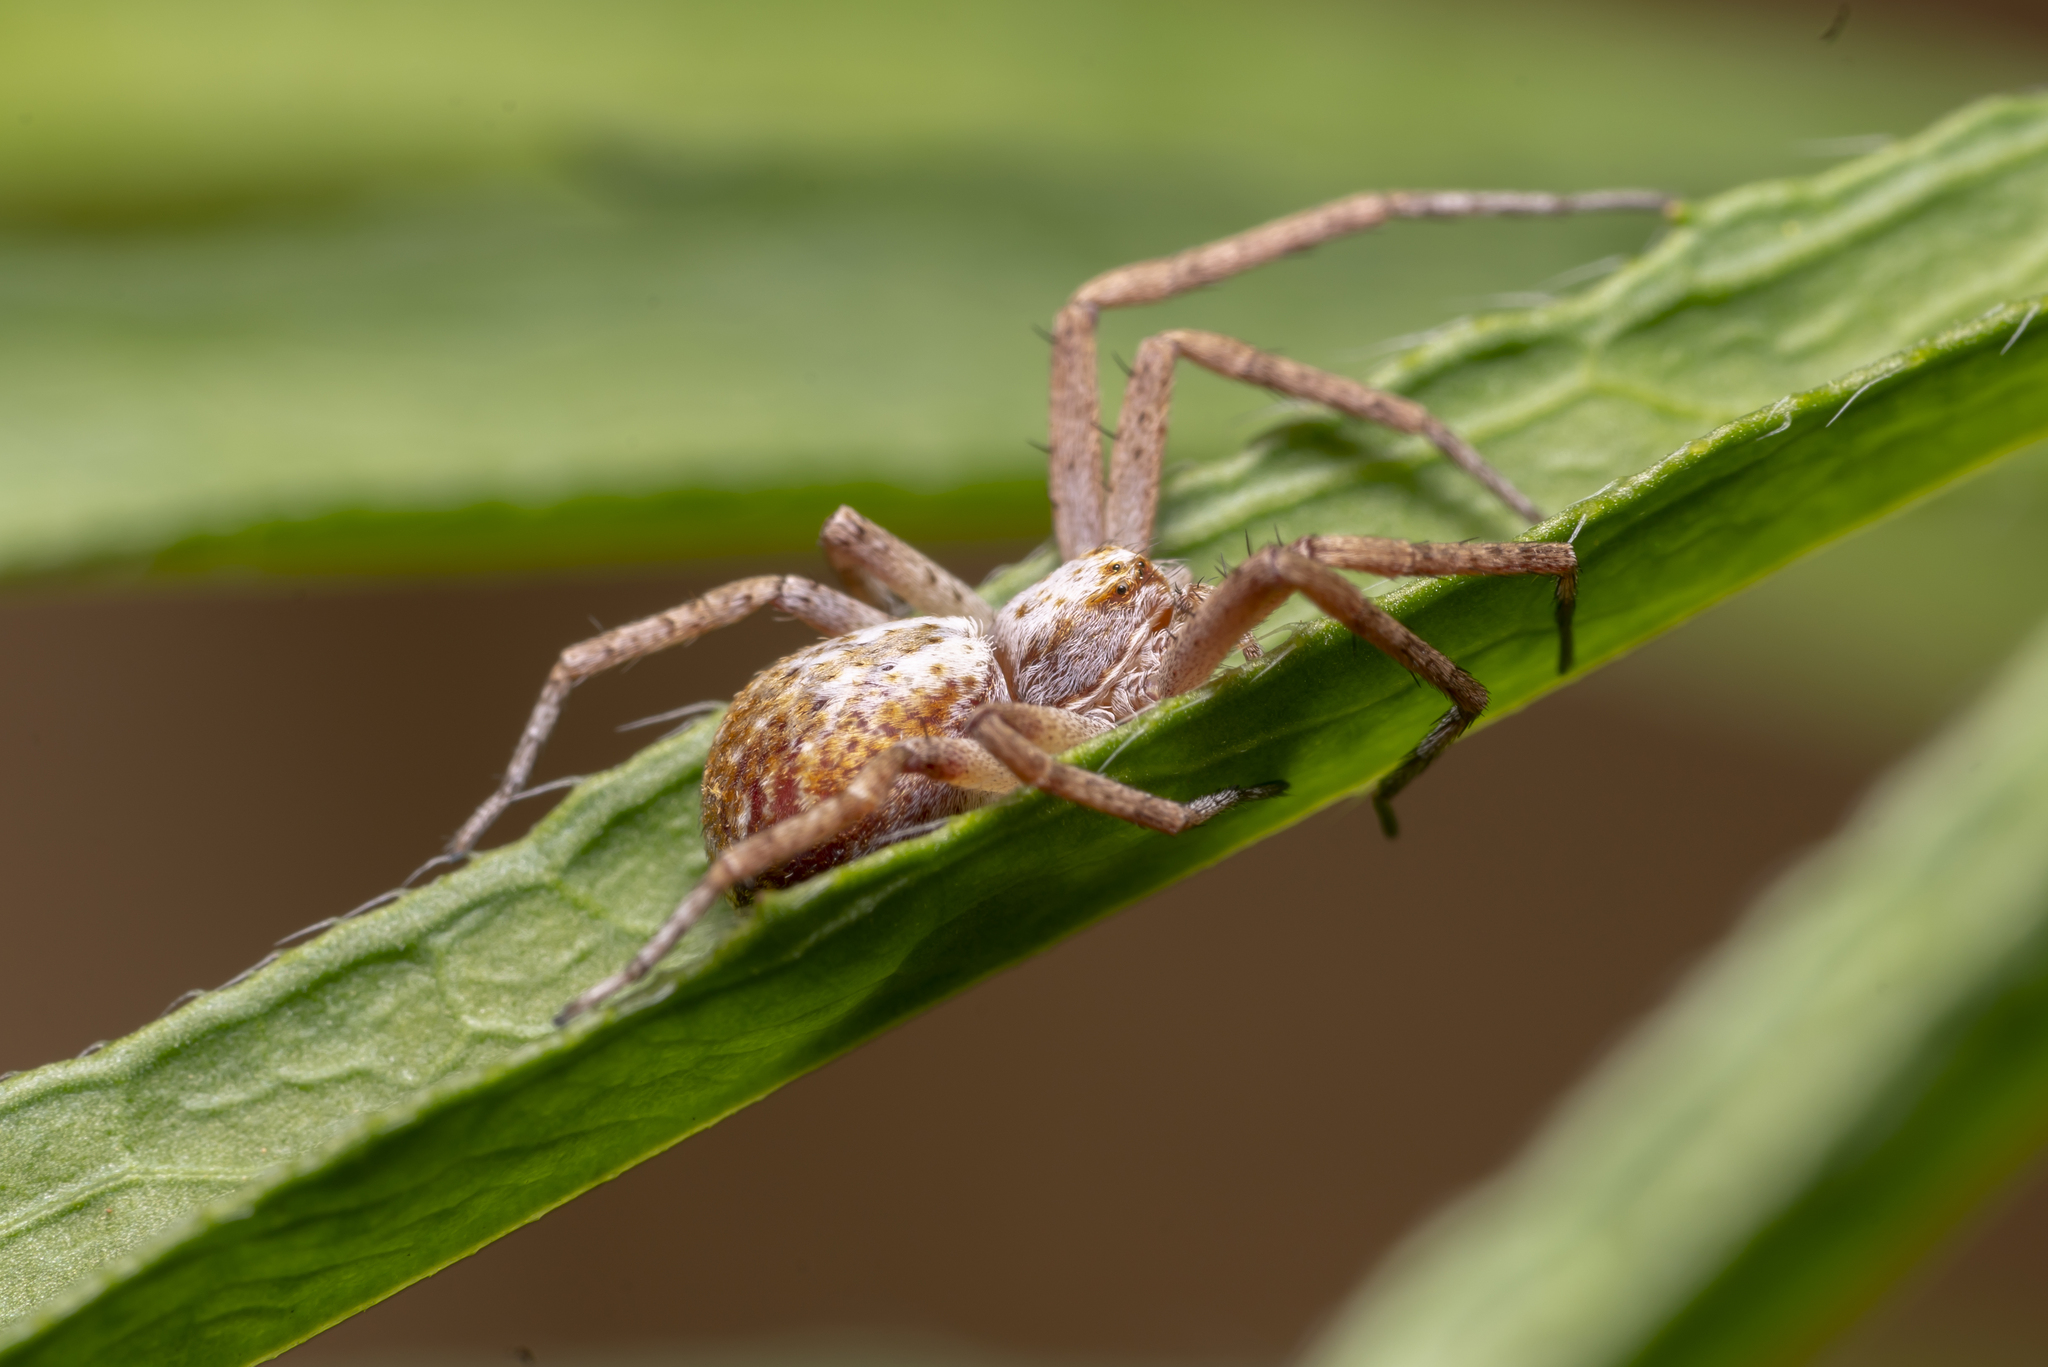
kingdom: Animalia
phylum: Arthropoda
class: Arachnida
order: Araneae
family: Philodromidae
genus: Philodromus
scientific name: Philodromus
